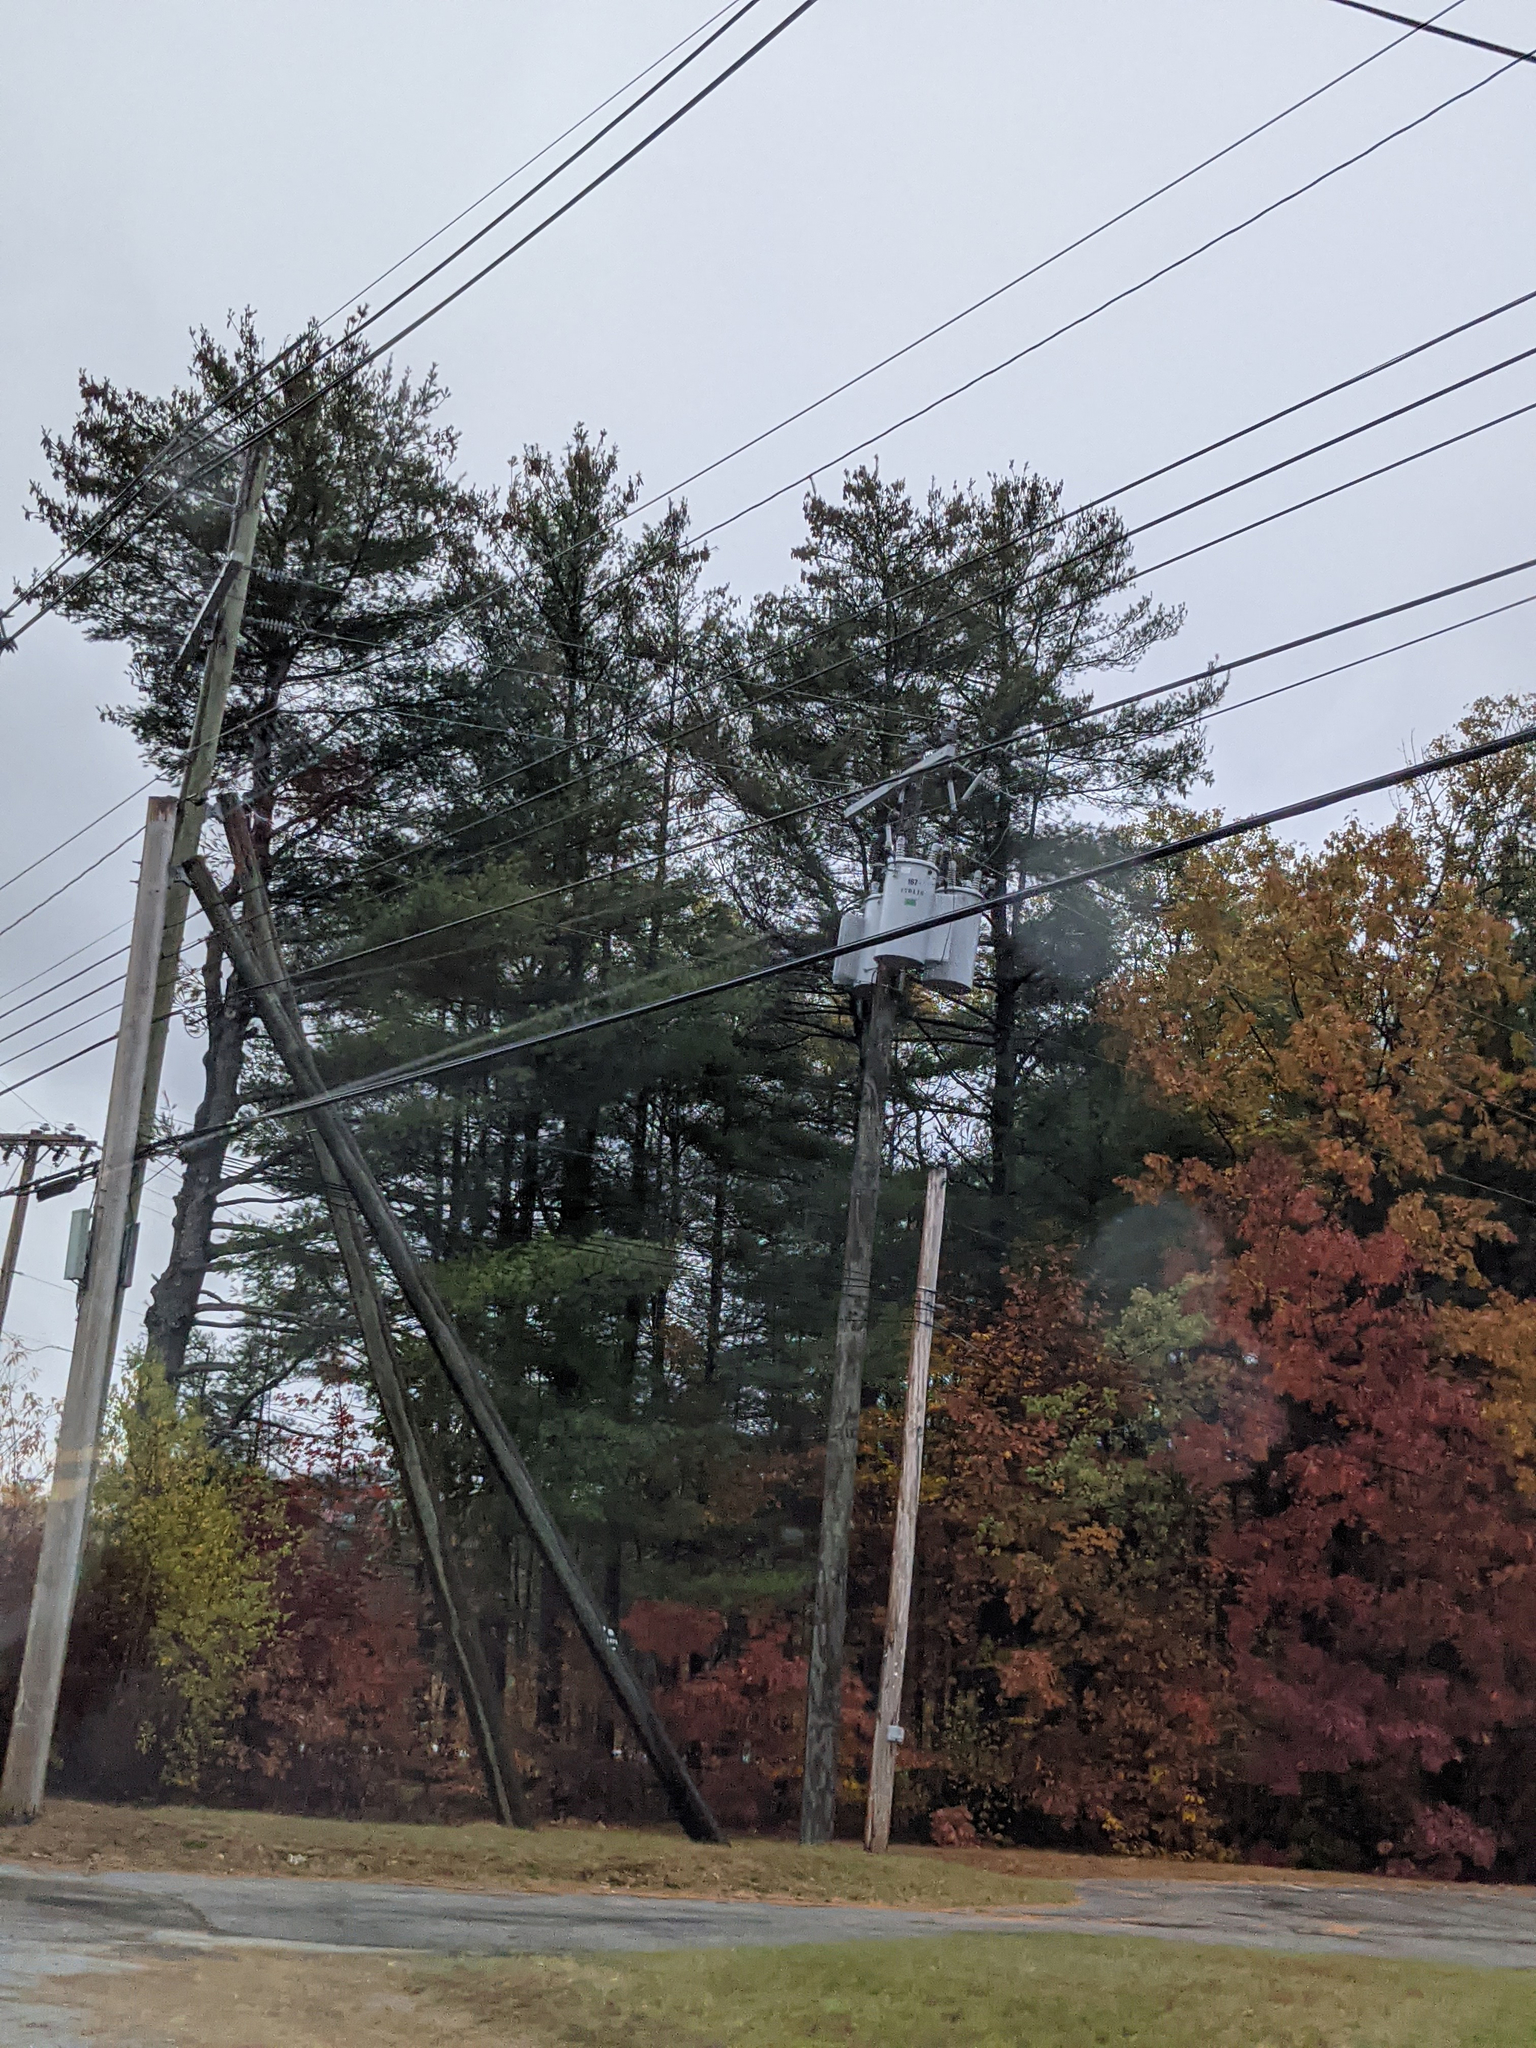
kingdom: Plantae
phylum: Tracheophyta
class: Pinopsida
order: Pinales
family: Pinaceae
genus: Pinus
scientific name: Pinus strobus
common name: Weymouth pine
